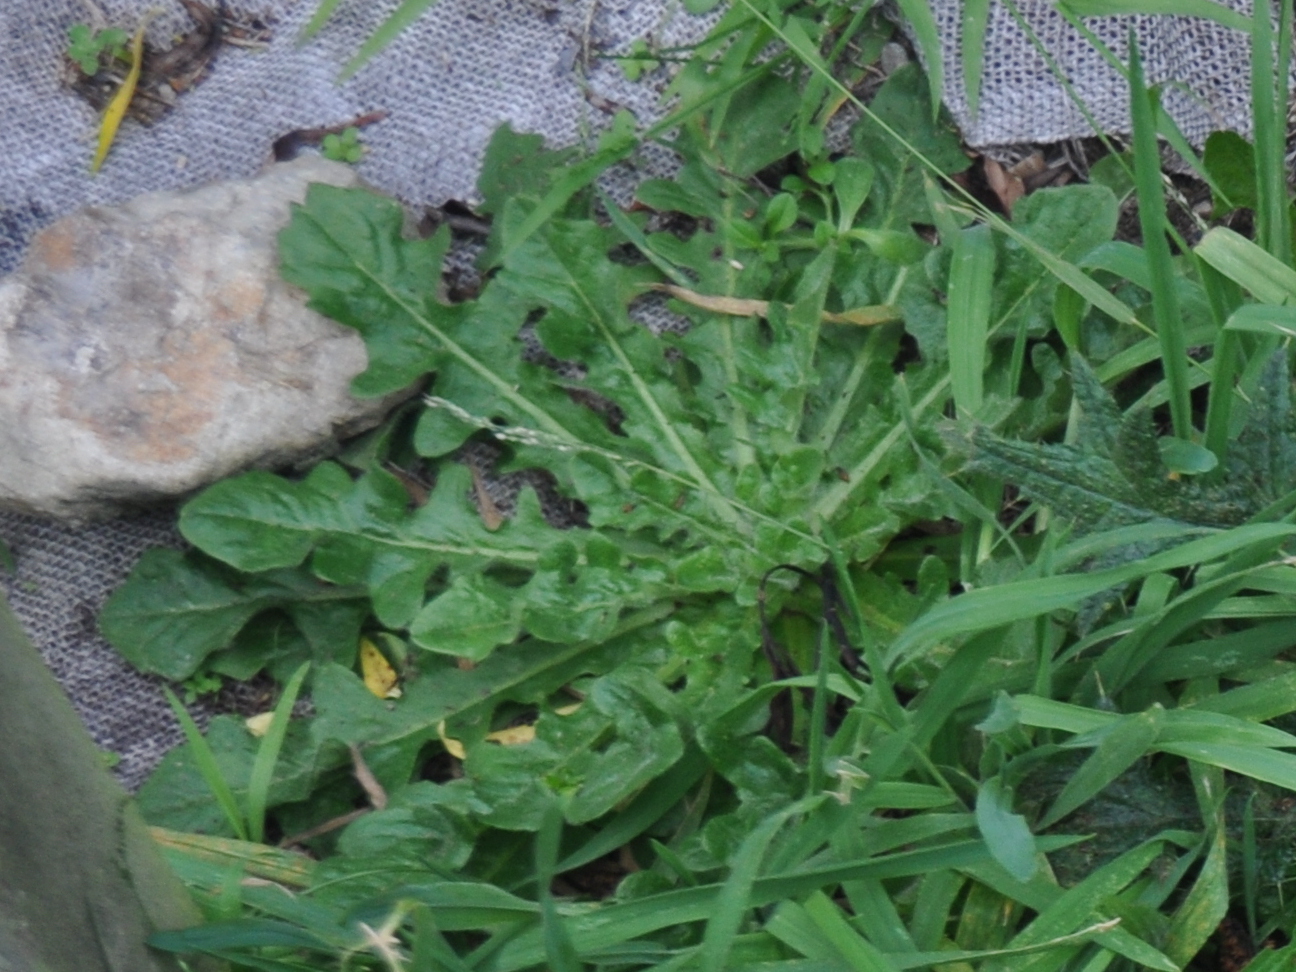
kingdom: Plantae
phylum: Tracheophyta
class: Magnoliopsida
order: Asterales
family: Asteraceae
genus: Hypochaeris
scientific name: Hypochaeris radicata
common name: Flatweed
